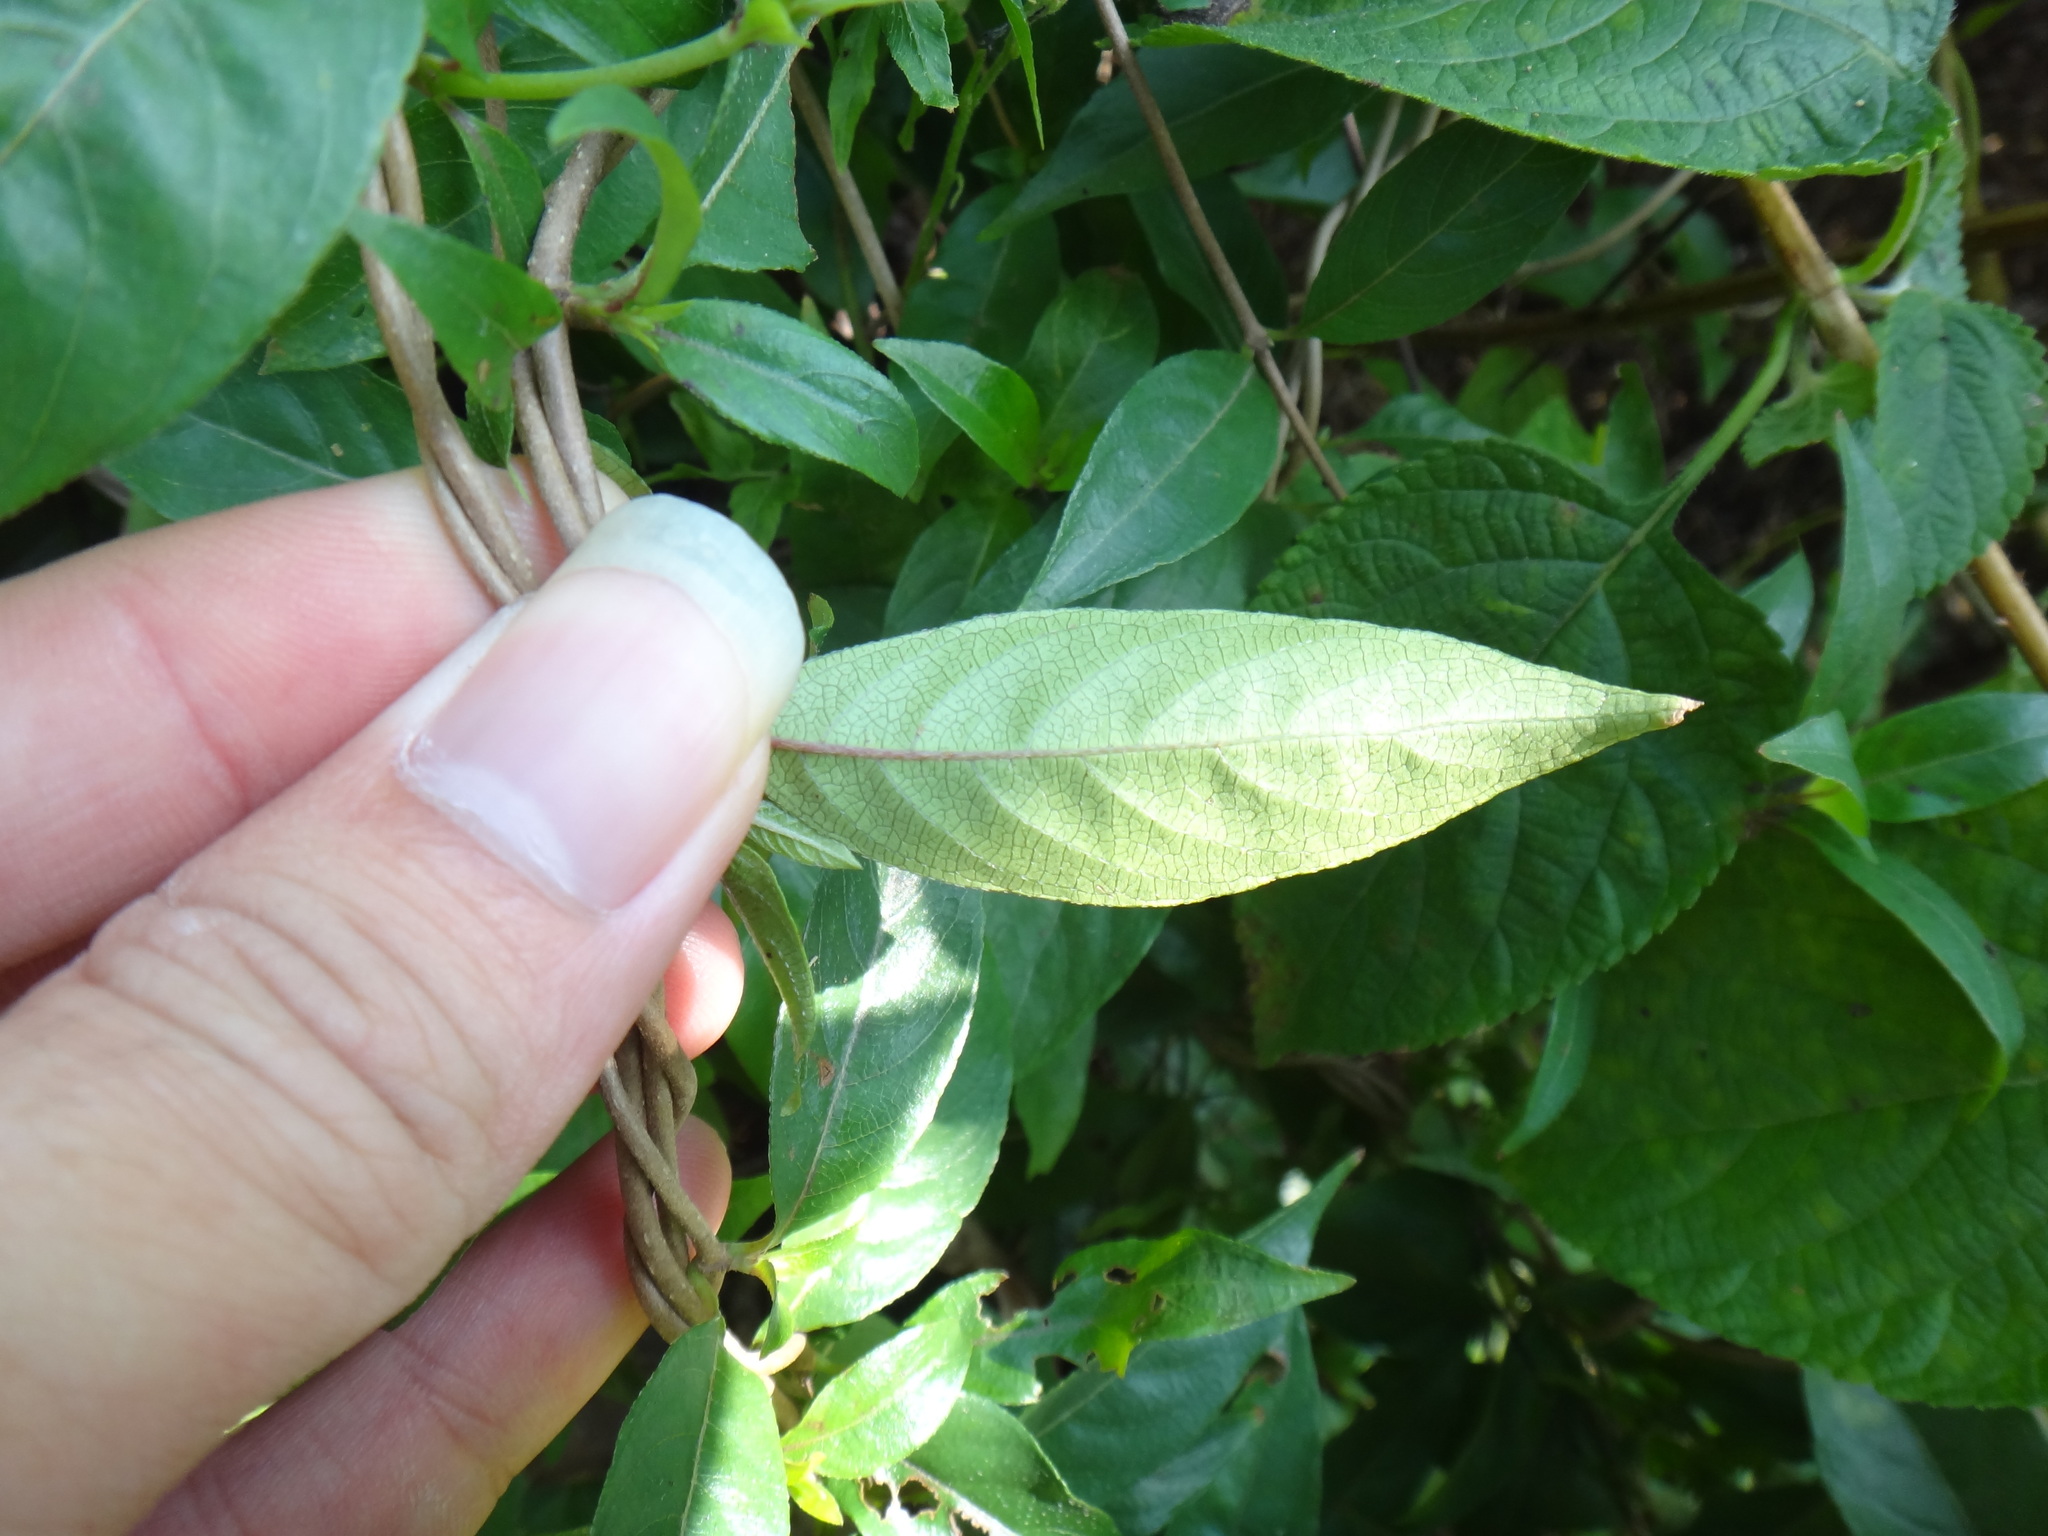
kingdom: Plantae
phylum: Tracheophyta
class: Magnoliopsida
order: Gentianales
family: Rubiaceae
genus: Mussaenda
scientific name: Mussaenda parviflora
